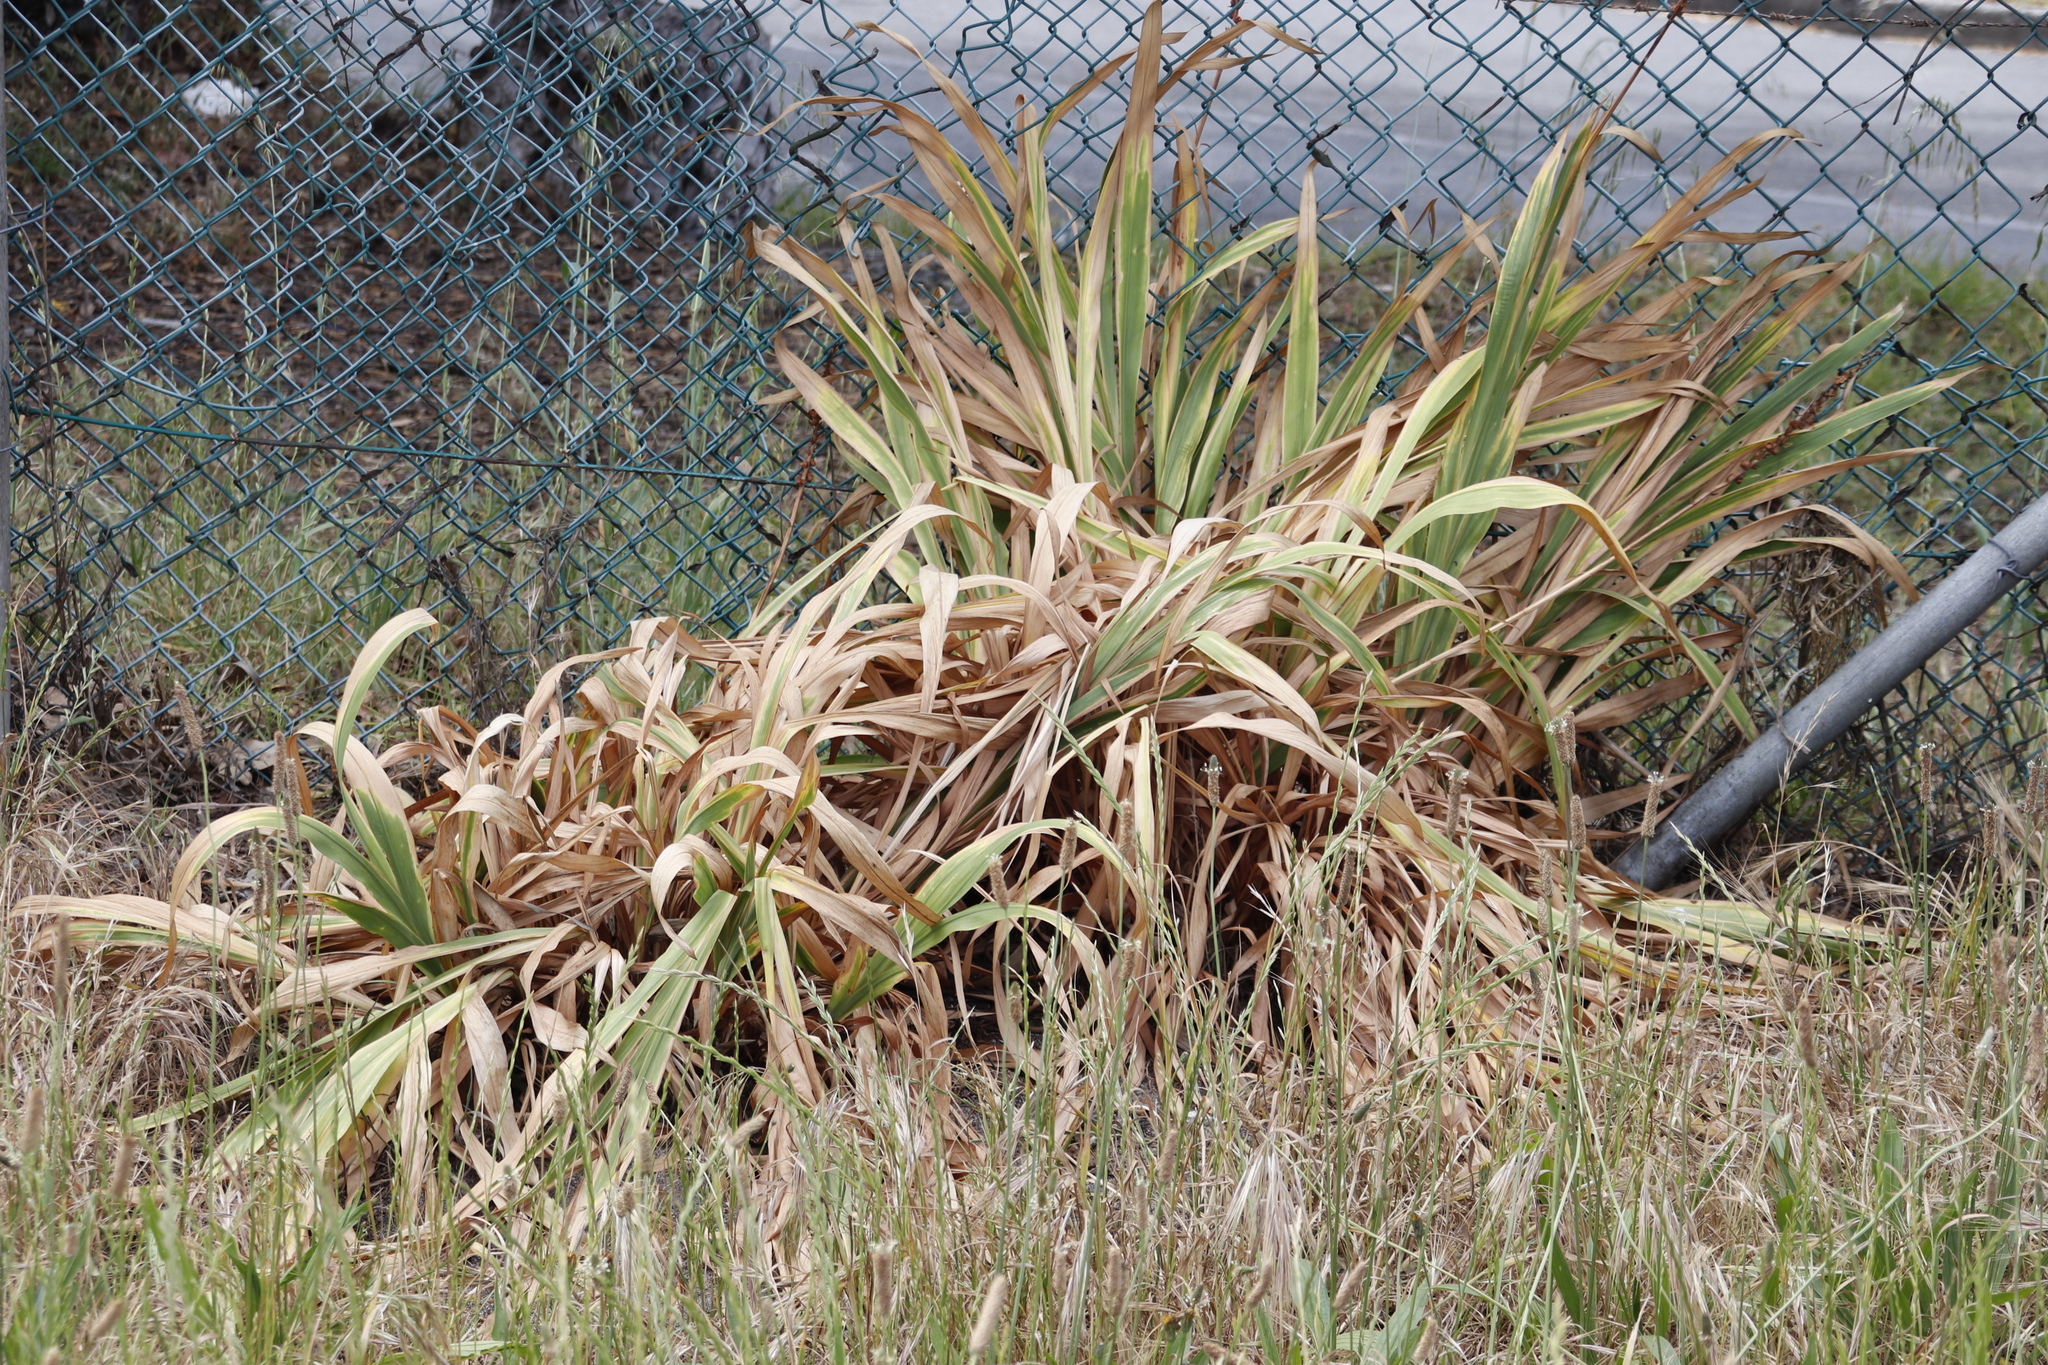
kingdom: Plantae
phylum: Tracheophyta
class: Liliopsida
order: Asparagales
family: Iridaceae
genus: Chasmanthe
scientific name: Chasmanthe floribunda
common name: African cornflag
